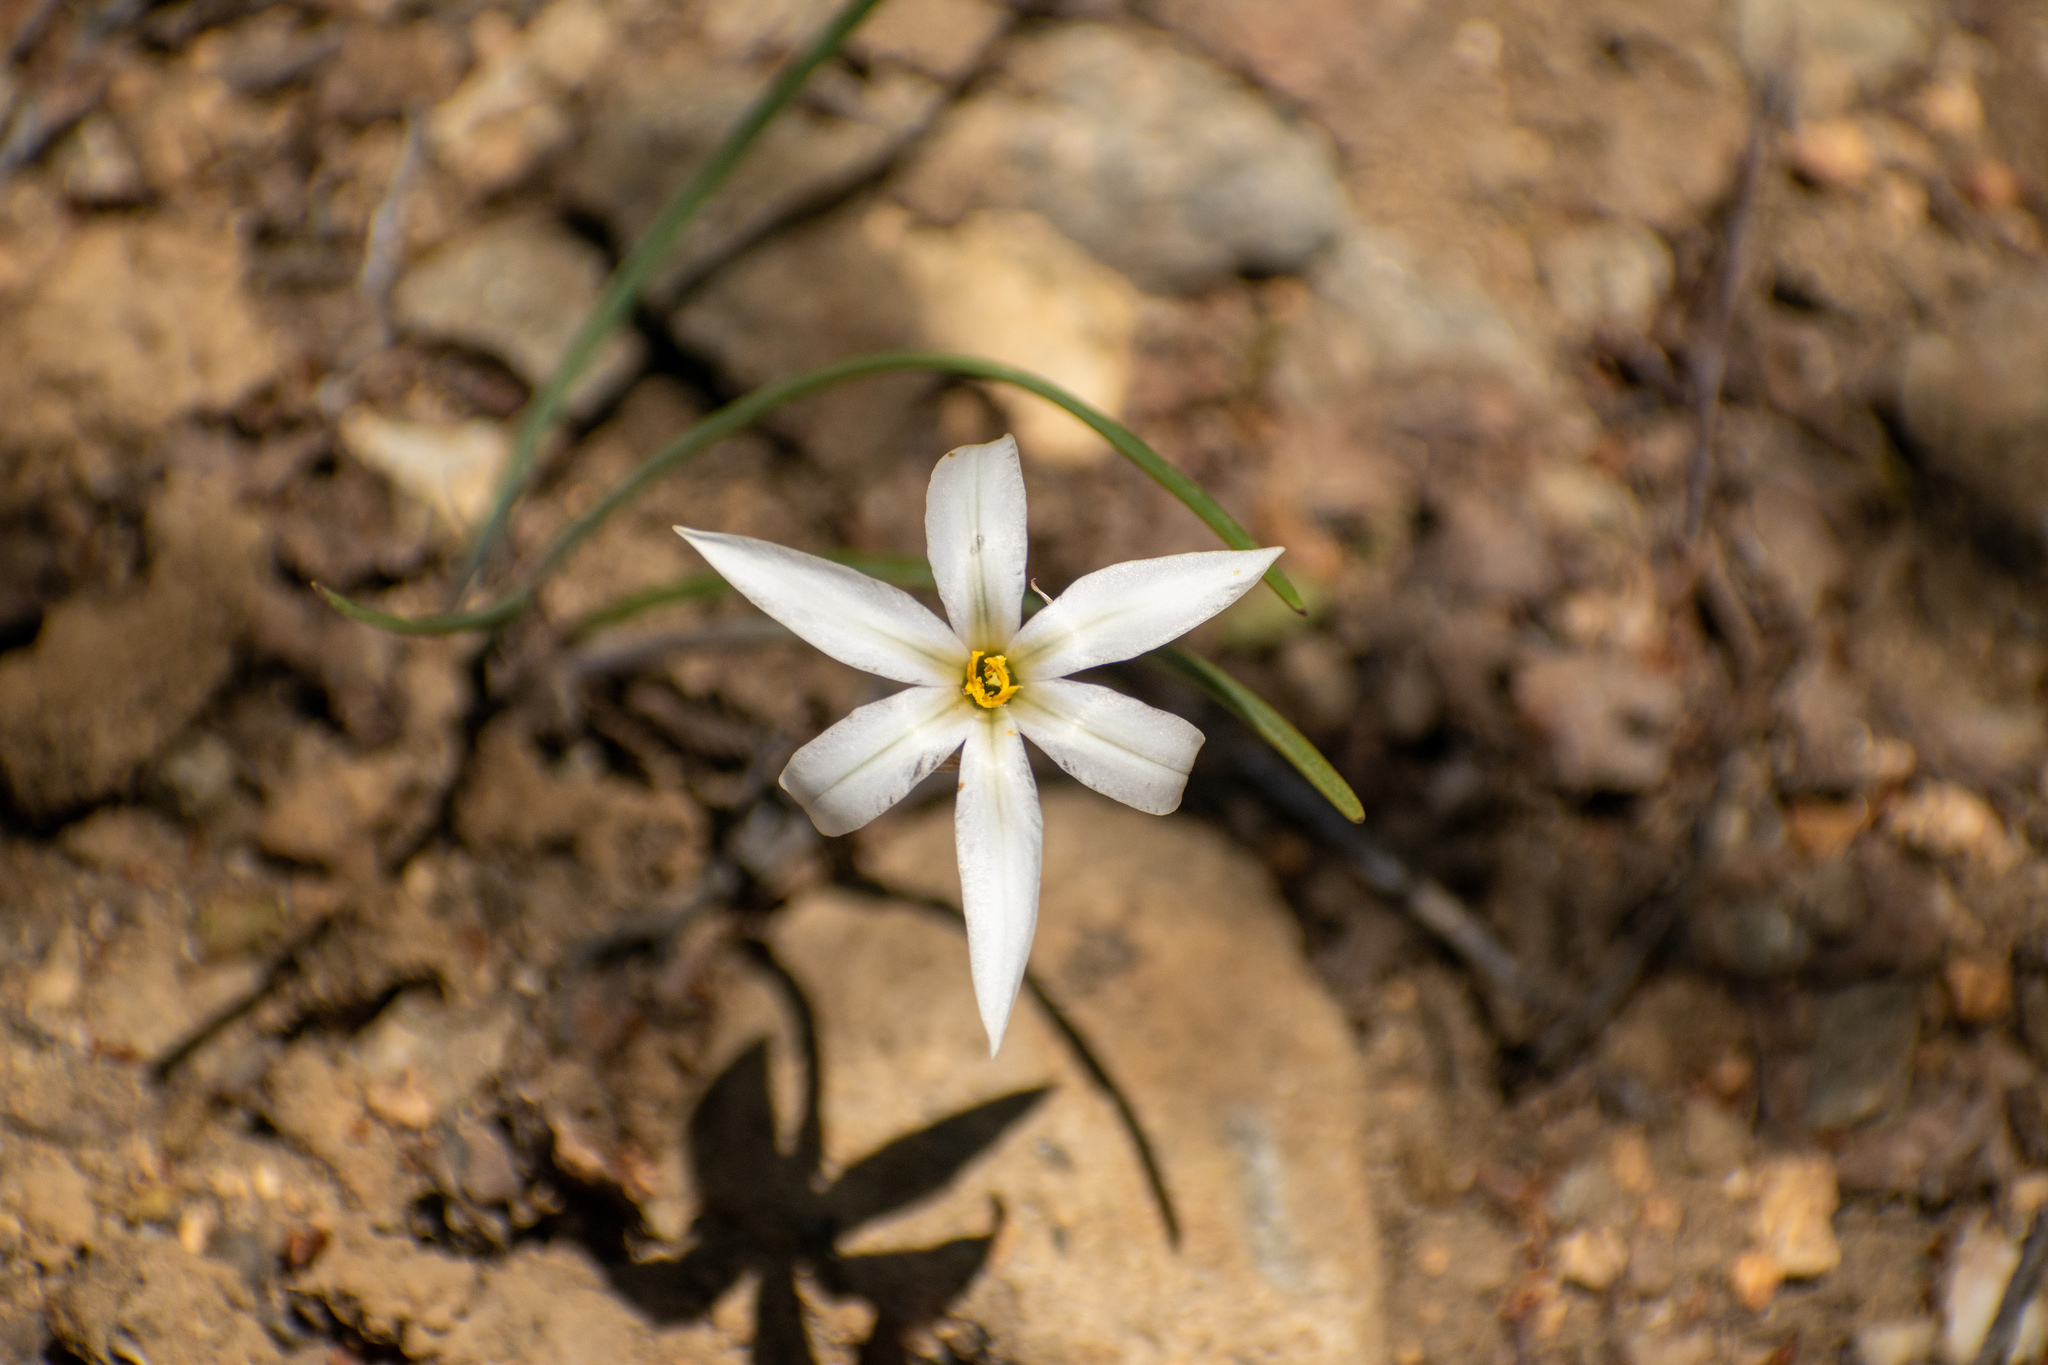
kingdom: Plantae
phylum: Tracheophyta
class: Liliopsida
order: Asparagales
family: Amaryllidaceae
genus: Tristagma
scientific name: Tristagma patagonicum
